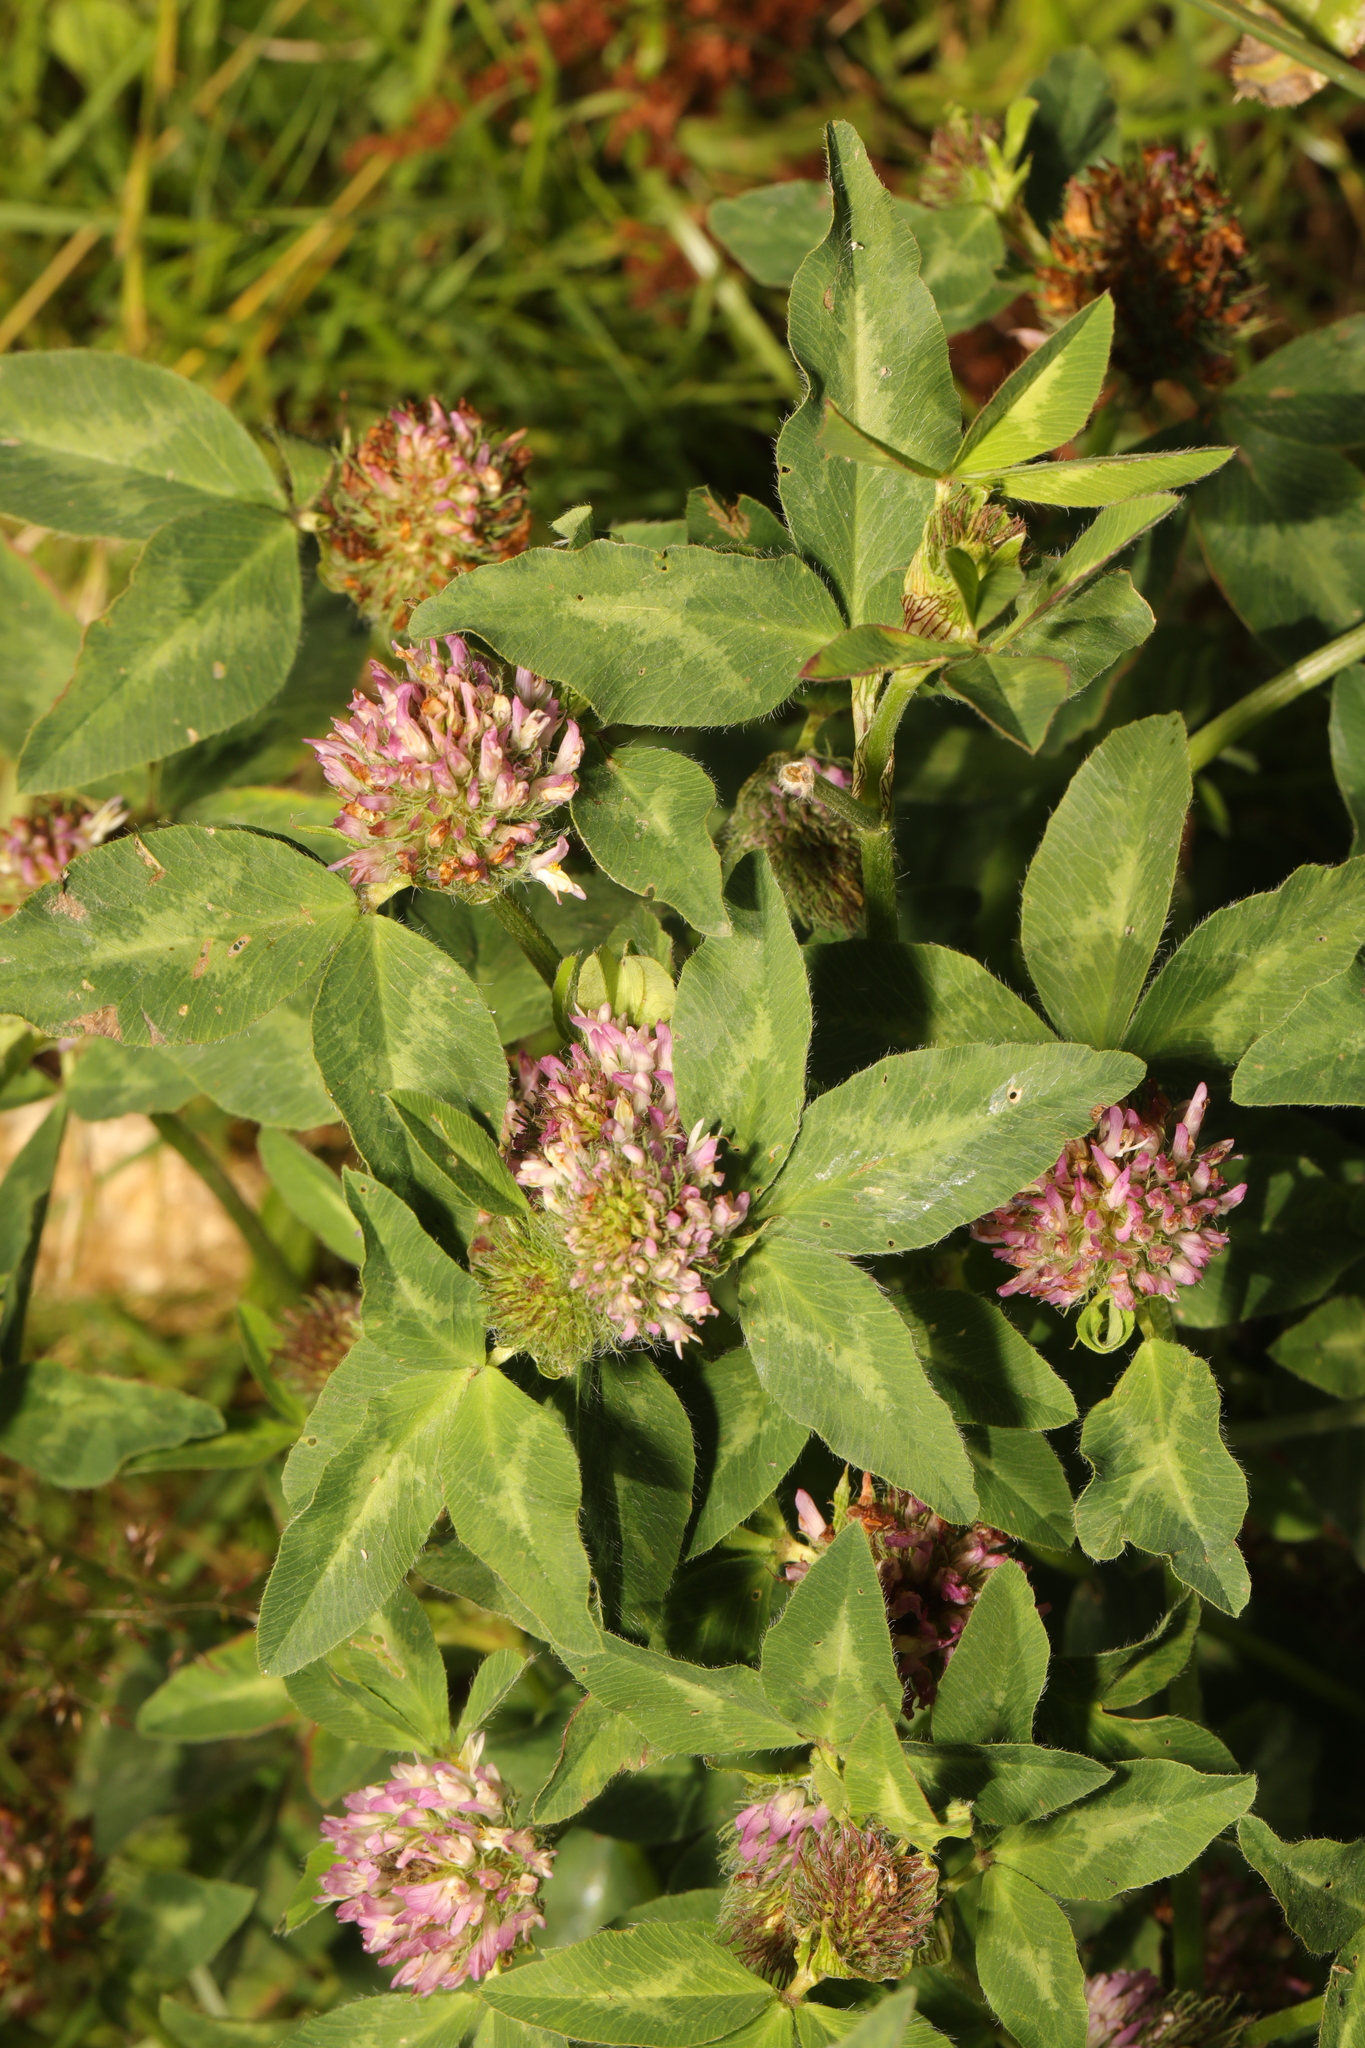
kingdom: Plantae
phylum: Tracheophyta
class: Magnoliopsida
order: Fabales
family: Fabaceae
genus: Trifolium
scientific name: Trifolium pratense
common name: Red clover
